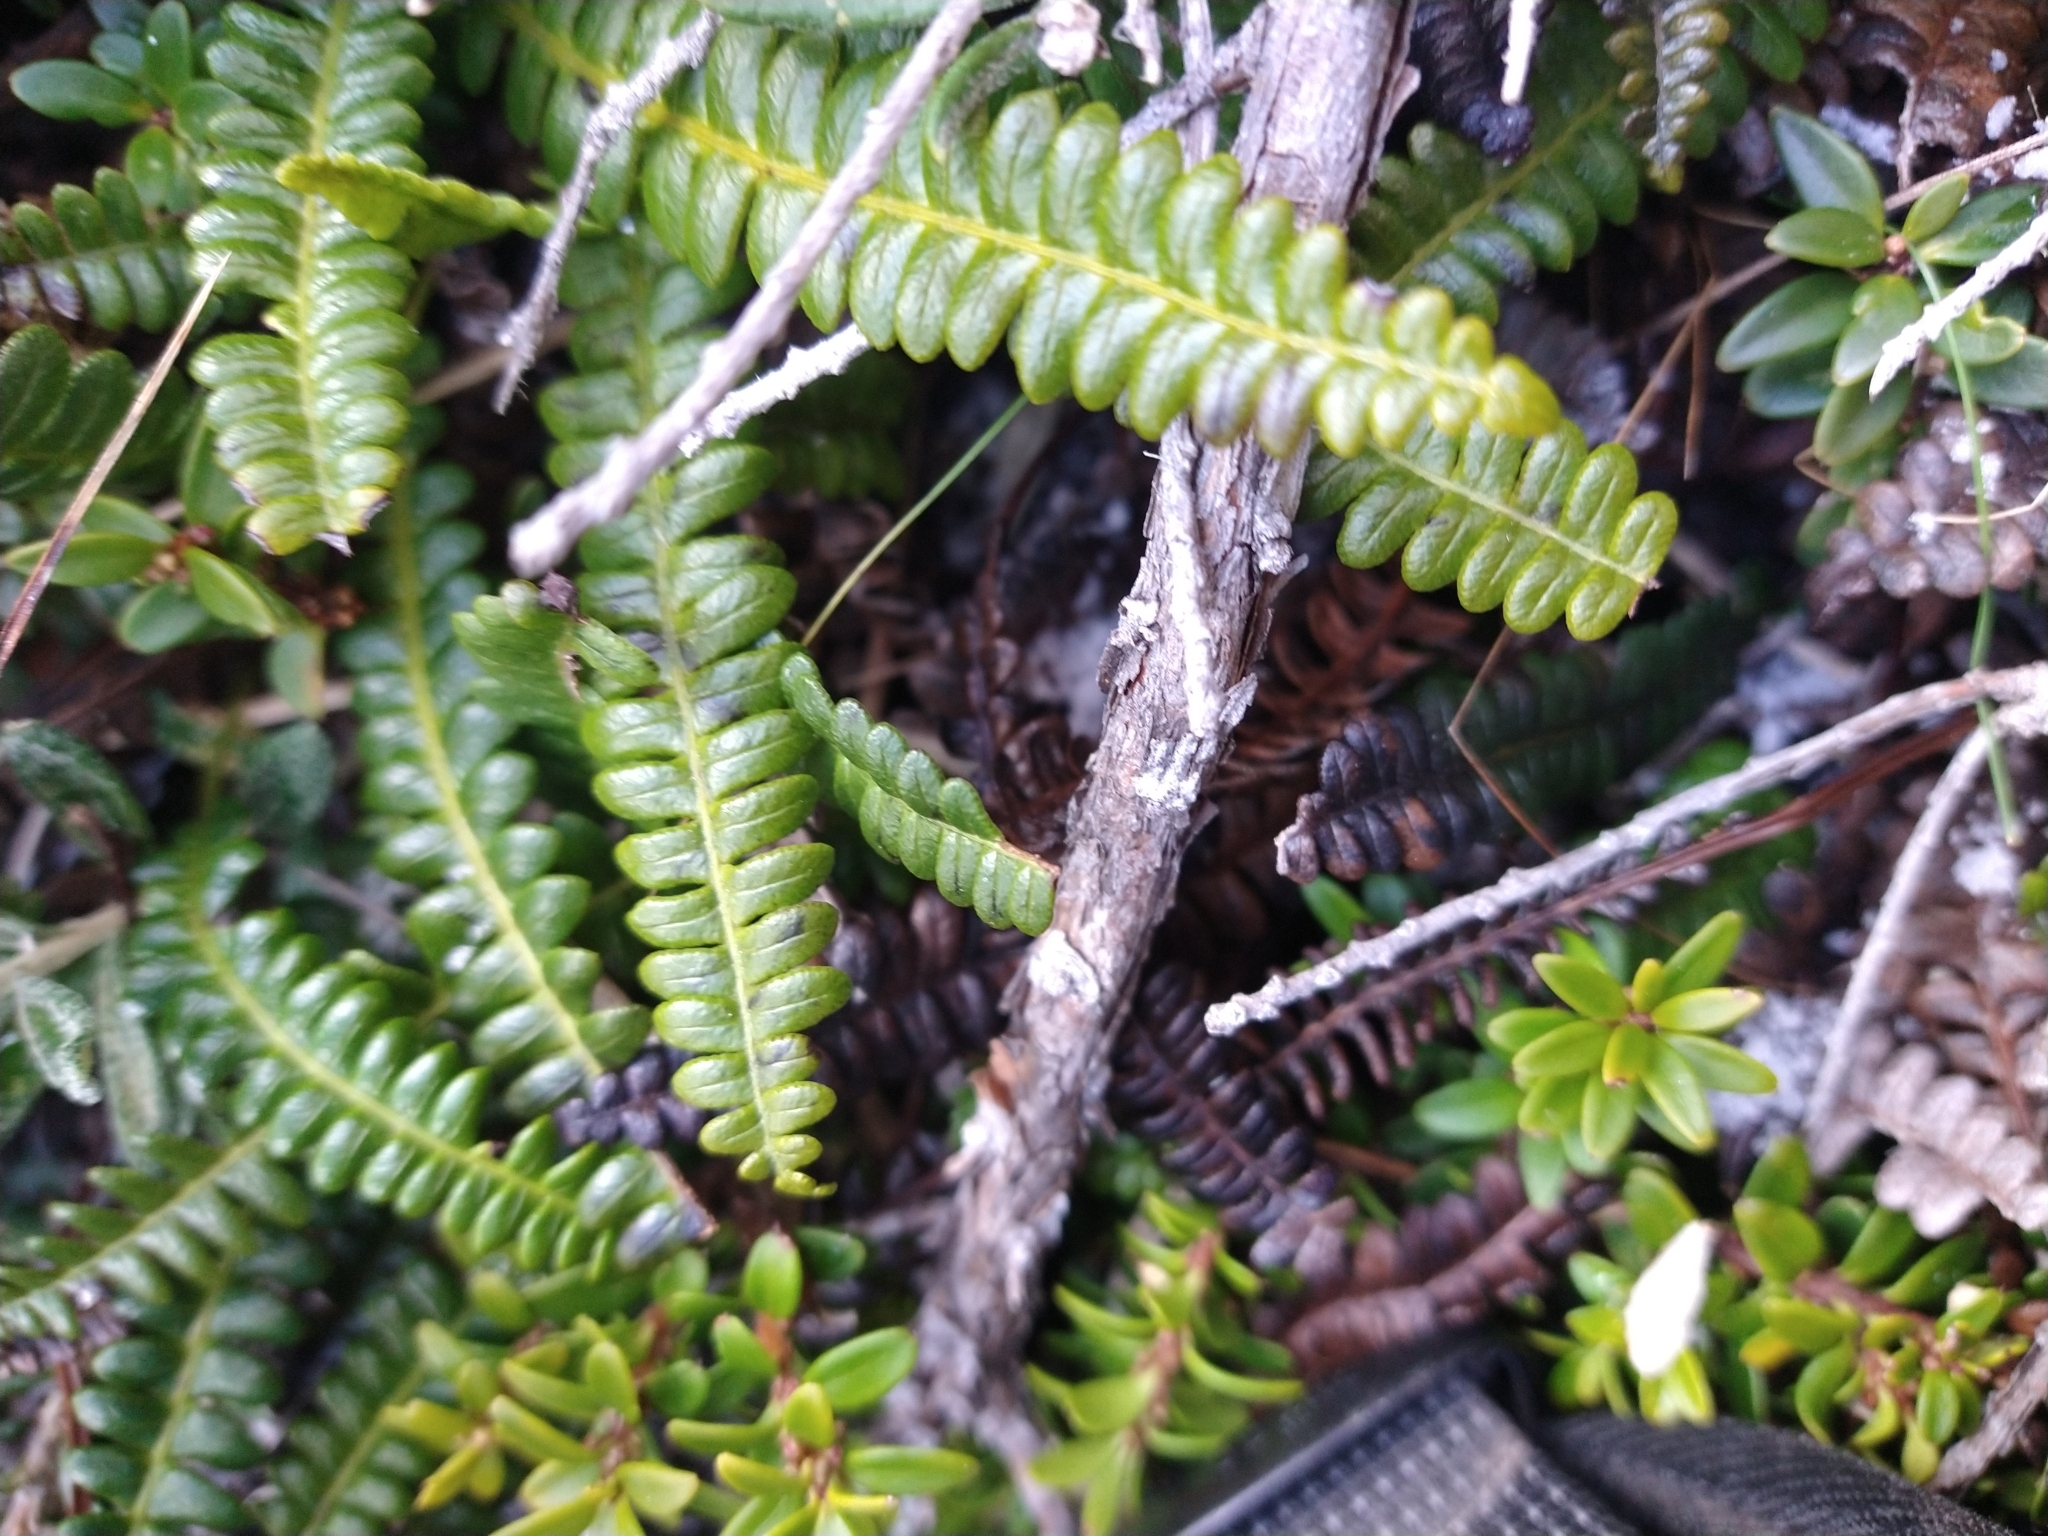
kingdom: Plantae
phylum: Tracheophyta
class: Polypodiopsida
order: Polypodiales
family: Blechnaceae
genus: Austroblechnum
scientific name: Austroblechnum penna-marina
